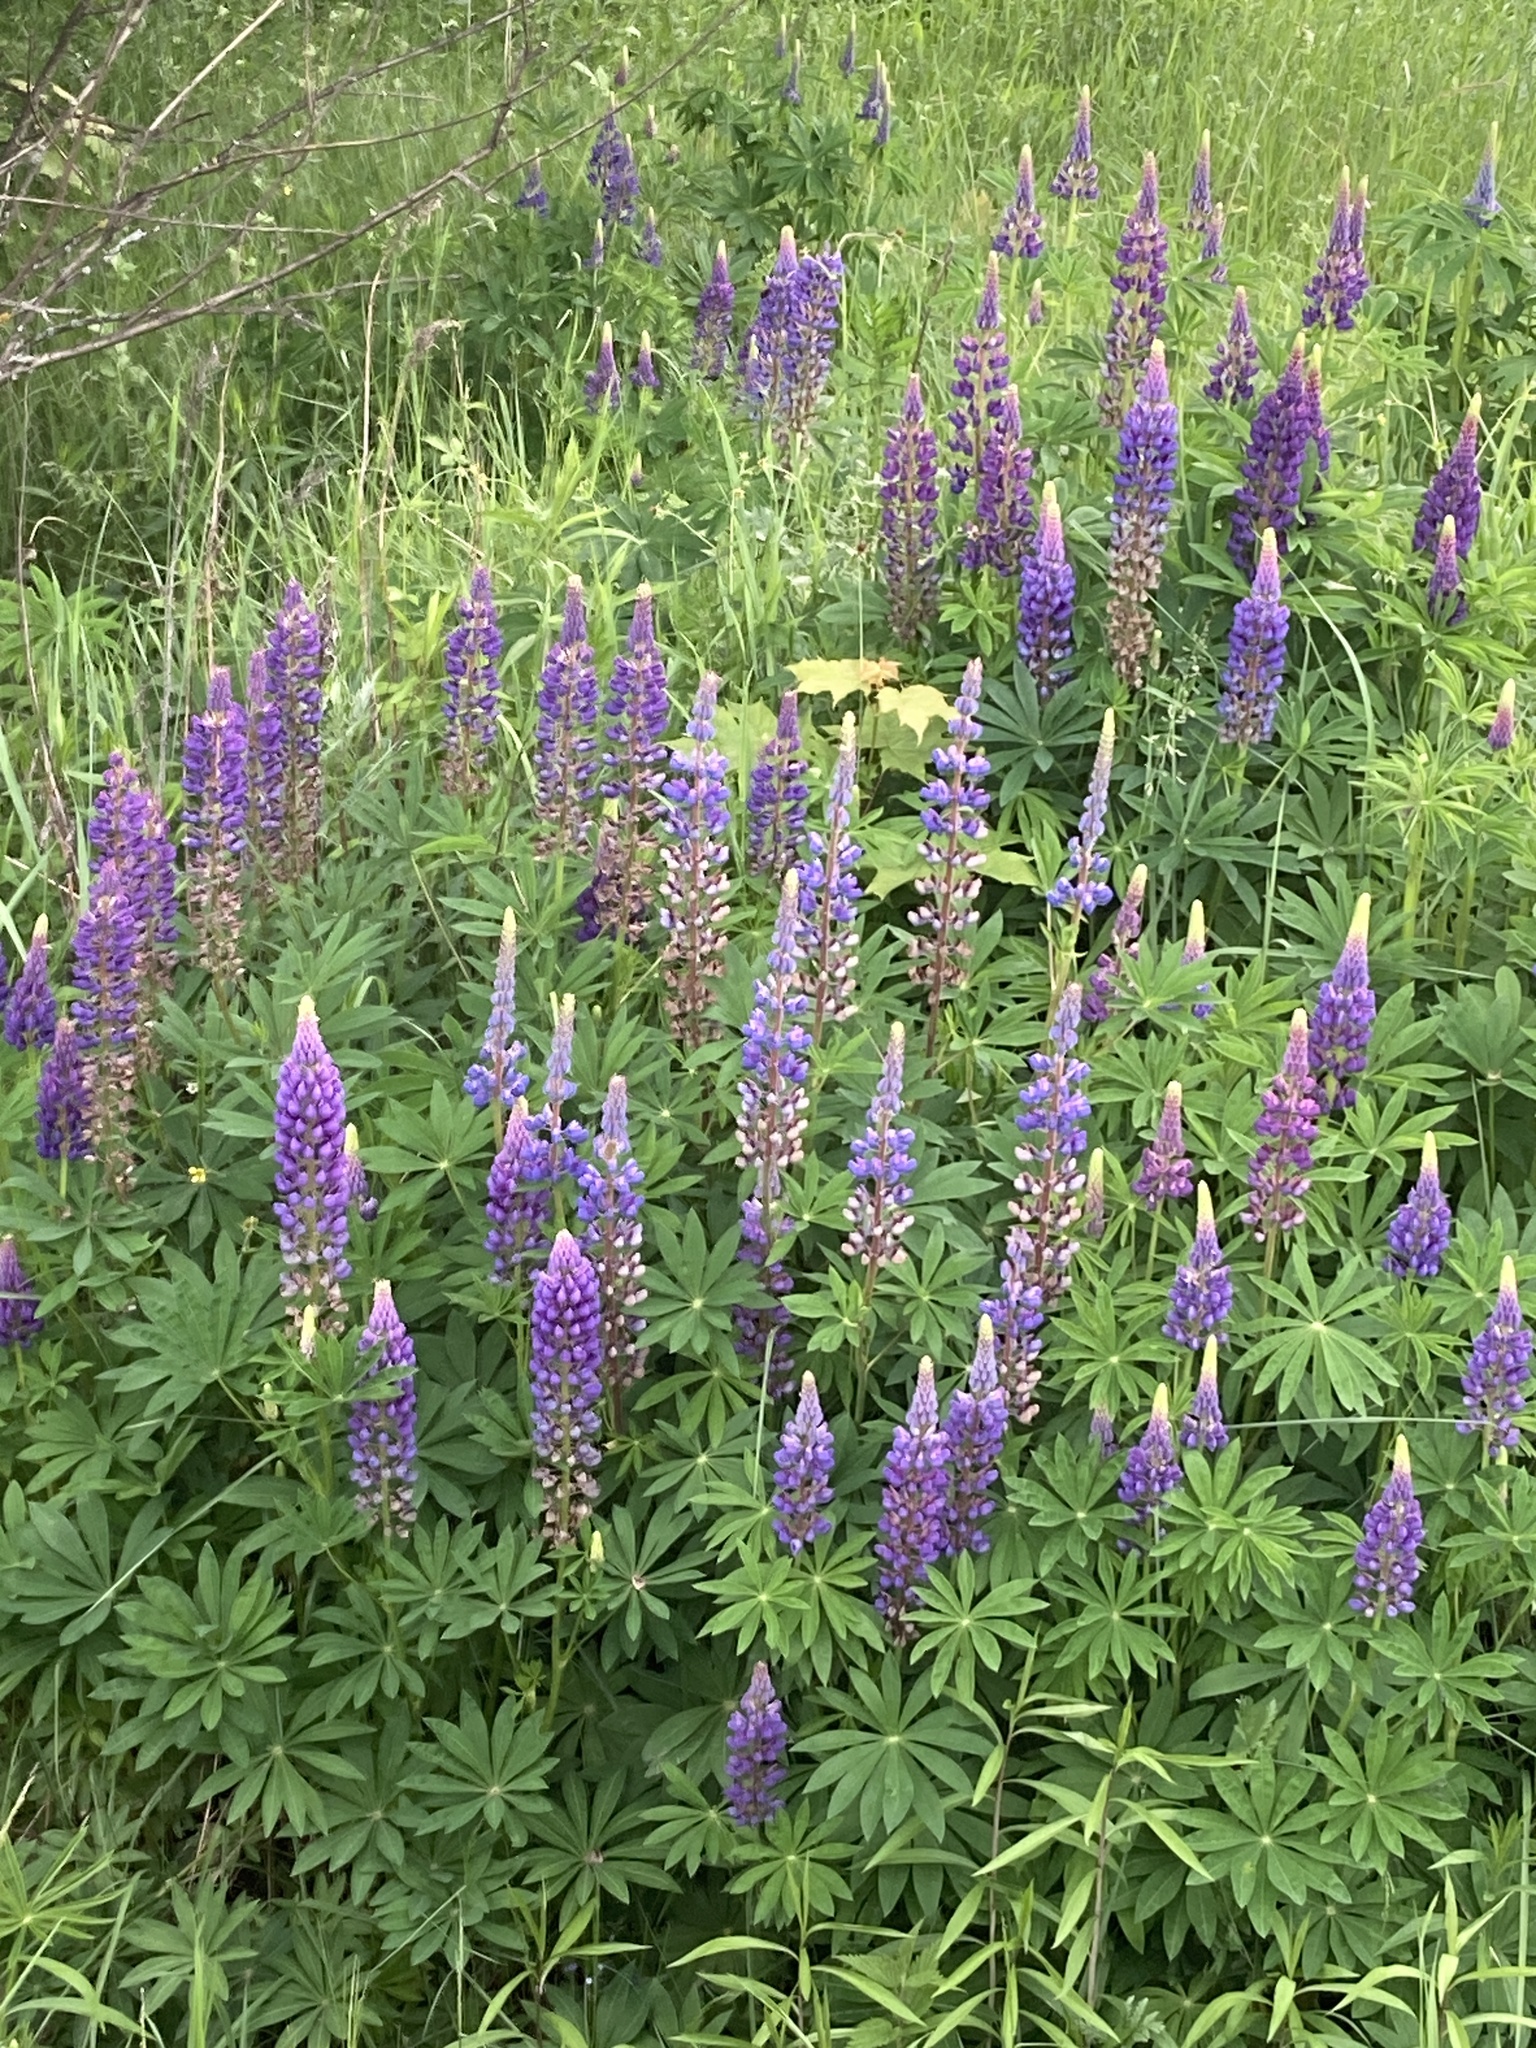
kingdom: Plantae
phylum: Tracheophyta
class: Magnoliopsida
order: Fabales
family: Fabaceae
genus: Lupinus
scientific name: Lupinus polyphyllus
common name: Garden lupin
